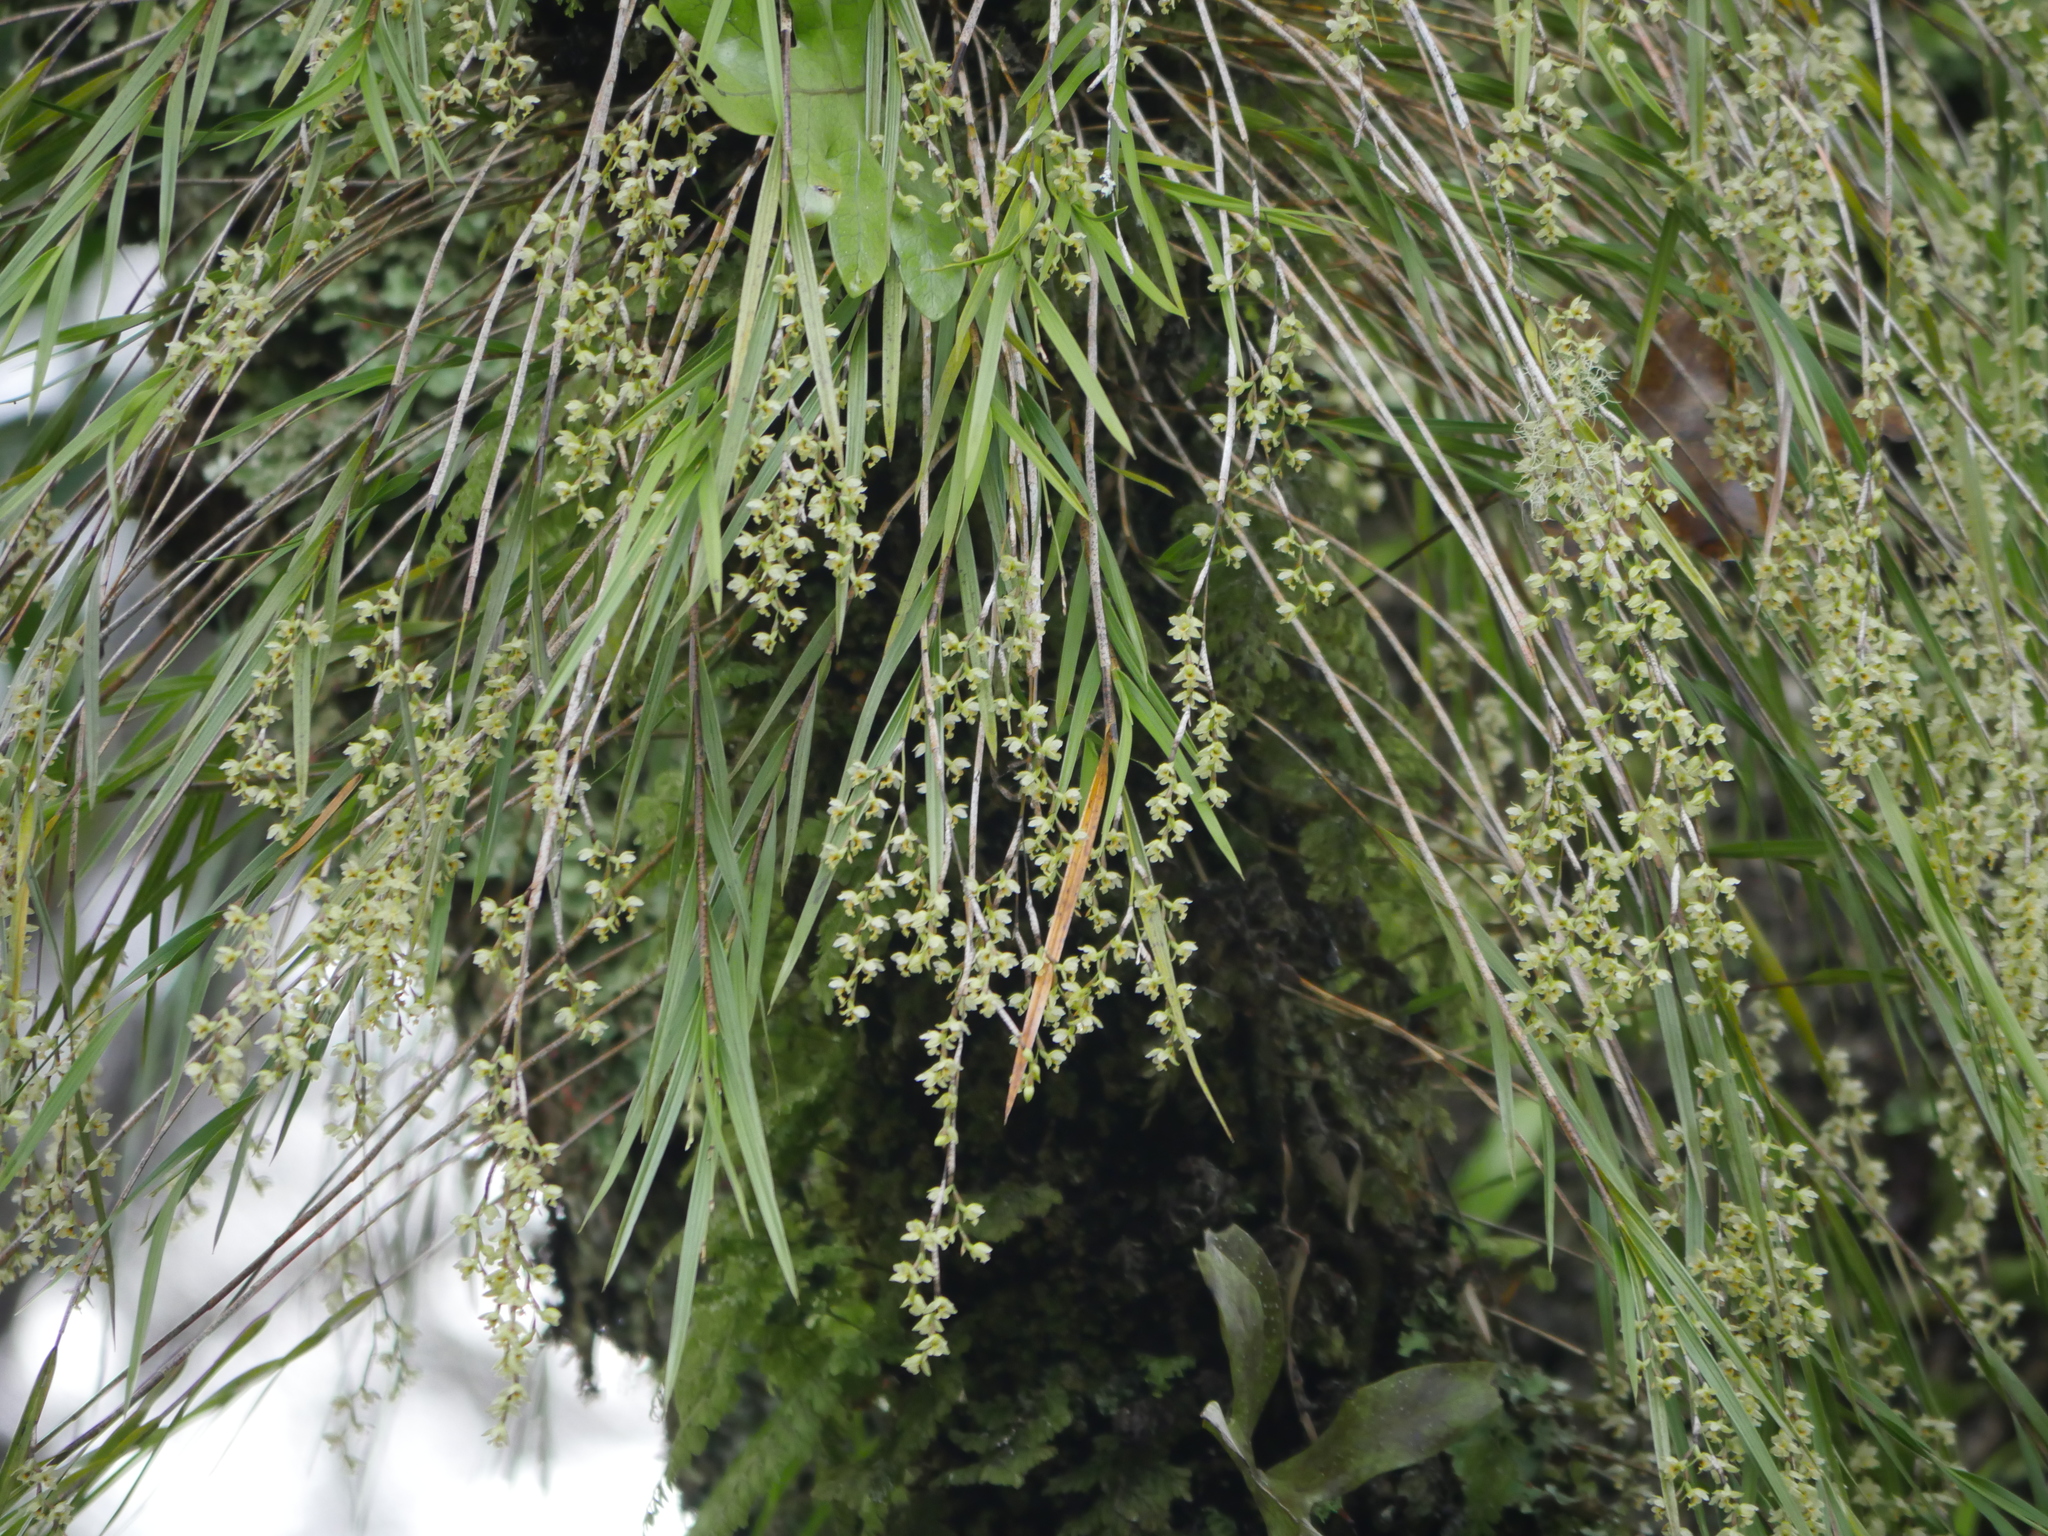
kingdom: Plantae
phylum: Tracheophyta
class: Liliopsida
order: Asparagales
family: Orchidaceae
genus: Earina
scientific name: Earina mucronata
